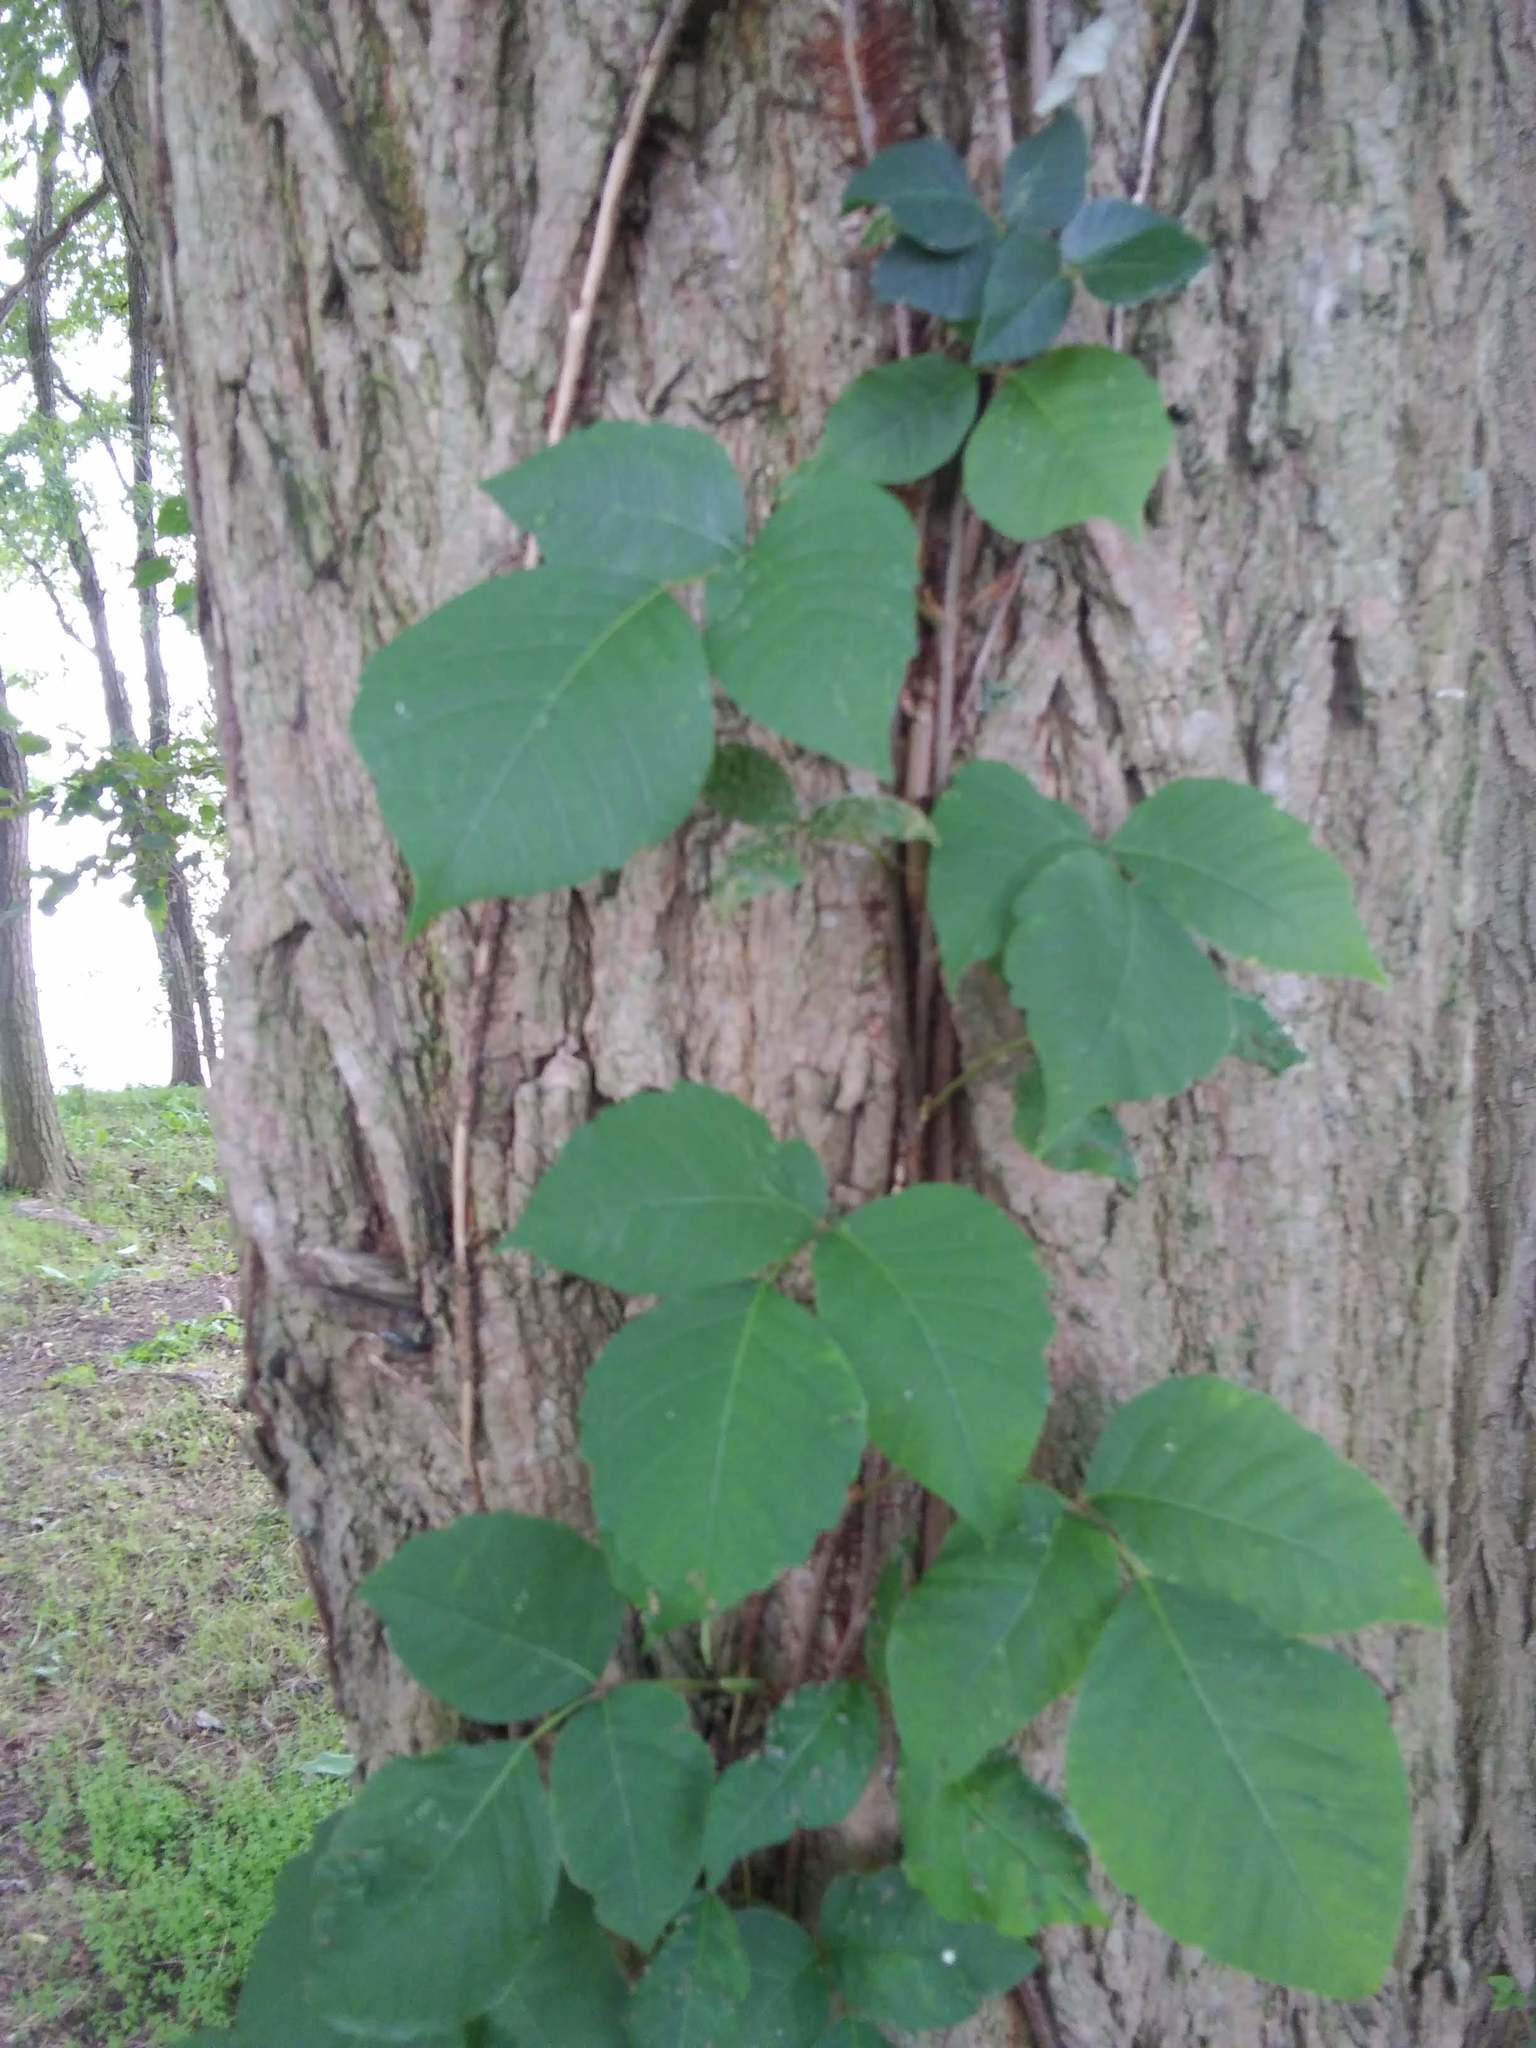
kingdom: Plantae
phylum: Tracheophyta
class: Magnoliopsida
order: Sapindales
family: Anacardiaceae
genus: Toxicodendron
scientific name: Toxicodendron radicans
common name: Poison ivy
